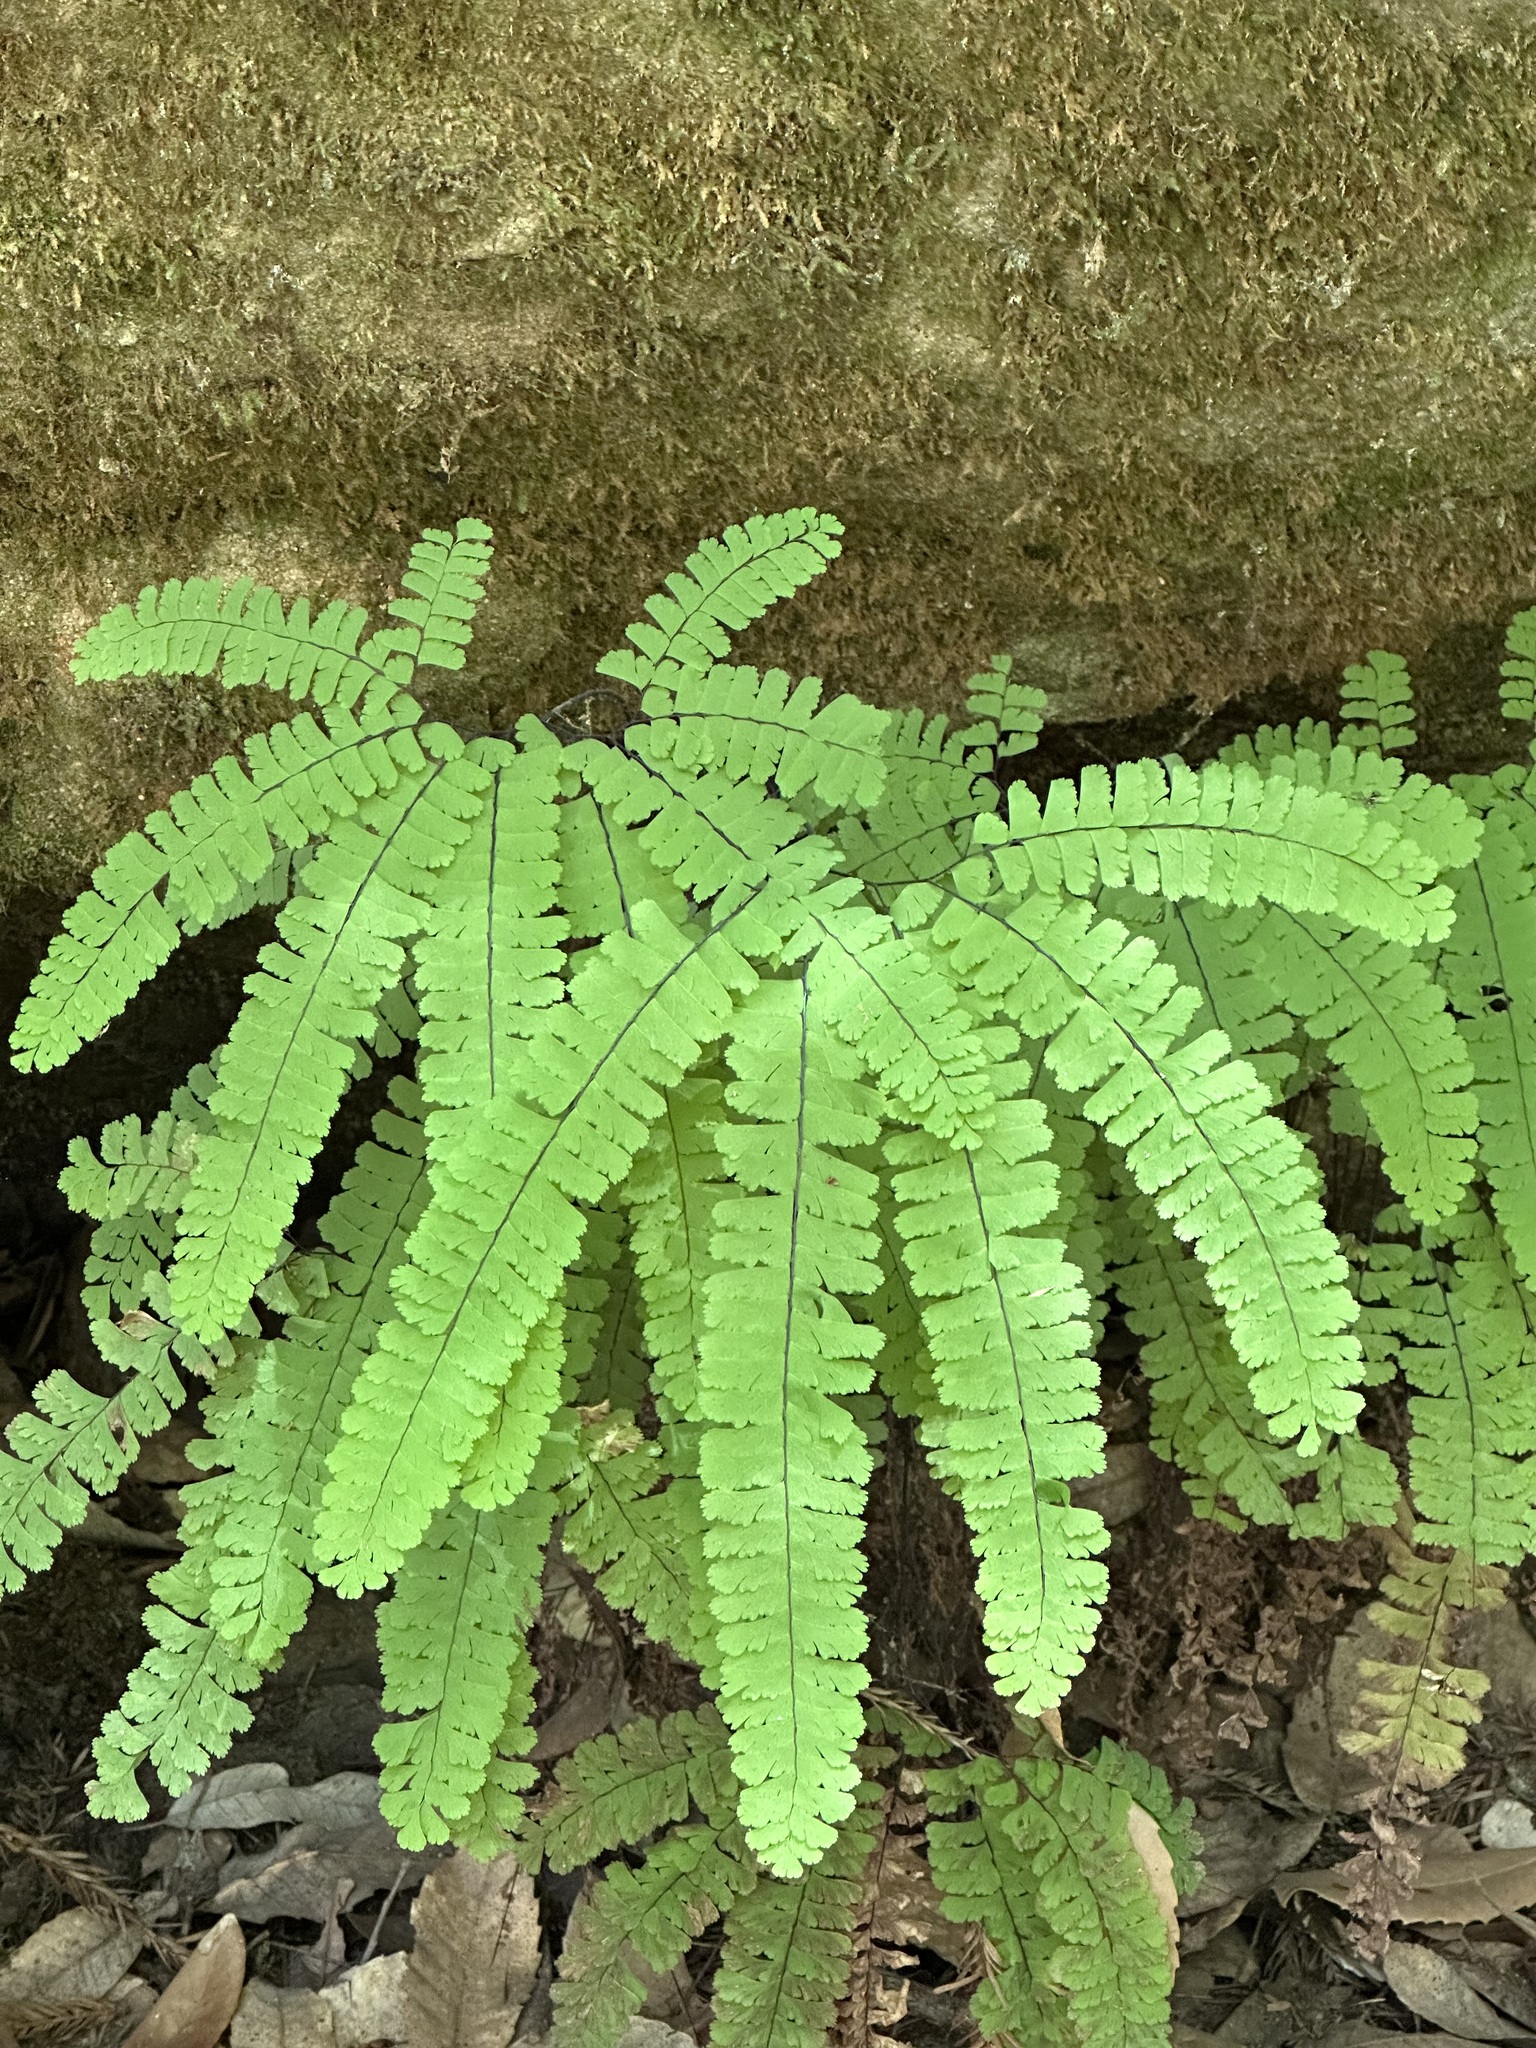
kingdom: Plantae
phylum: Tracheophyta
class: Polypodiopsida
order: Polypodiales
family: Pteridaceae
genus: Adiantum
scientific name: Adiantum aleuticum
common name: Aleutian maidenhair fern
